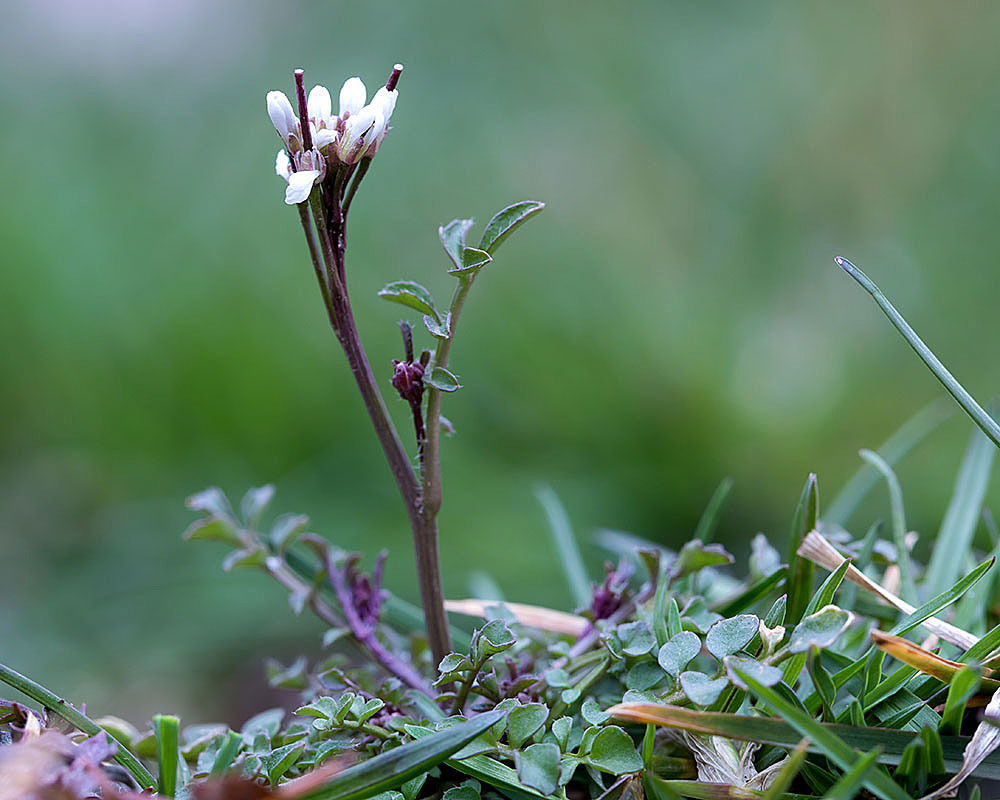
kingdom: Plantae
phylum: Tracheophyta
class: Magnoliopsida
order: Brassicales
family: Brassicaceae
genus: Cardamine
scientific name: Cardamine hirsuta
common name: Hairy bittercress
